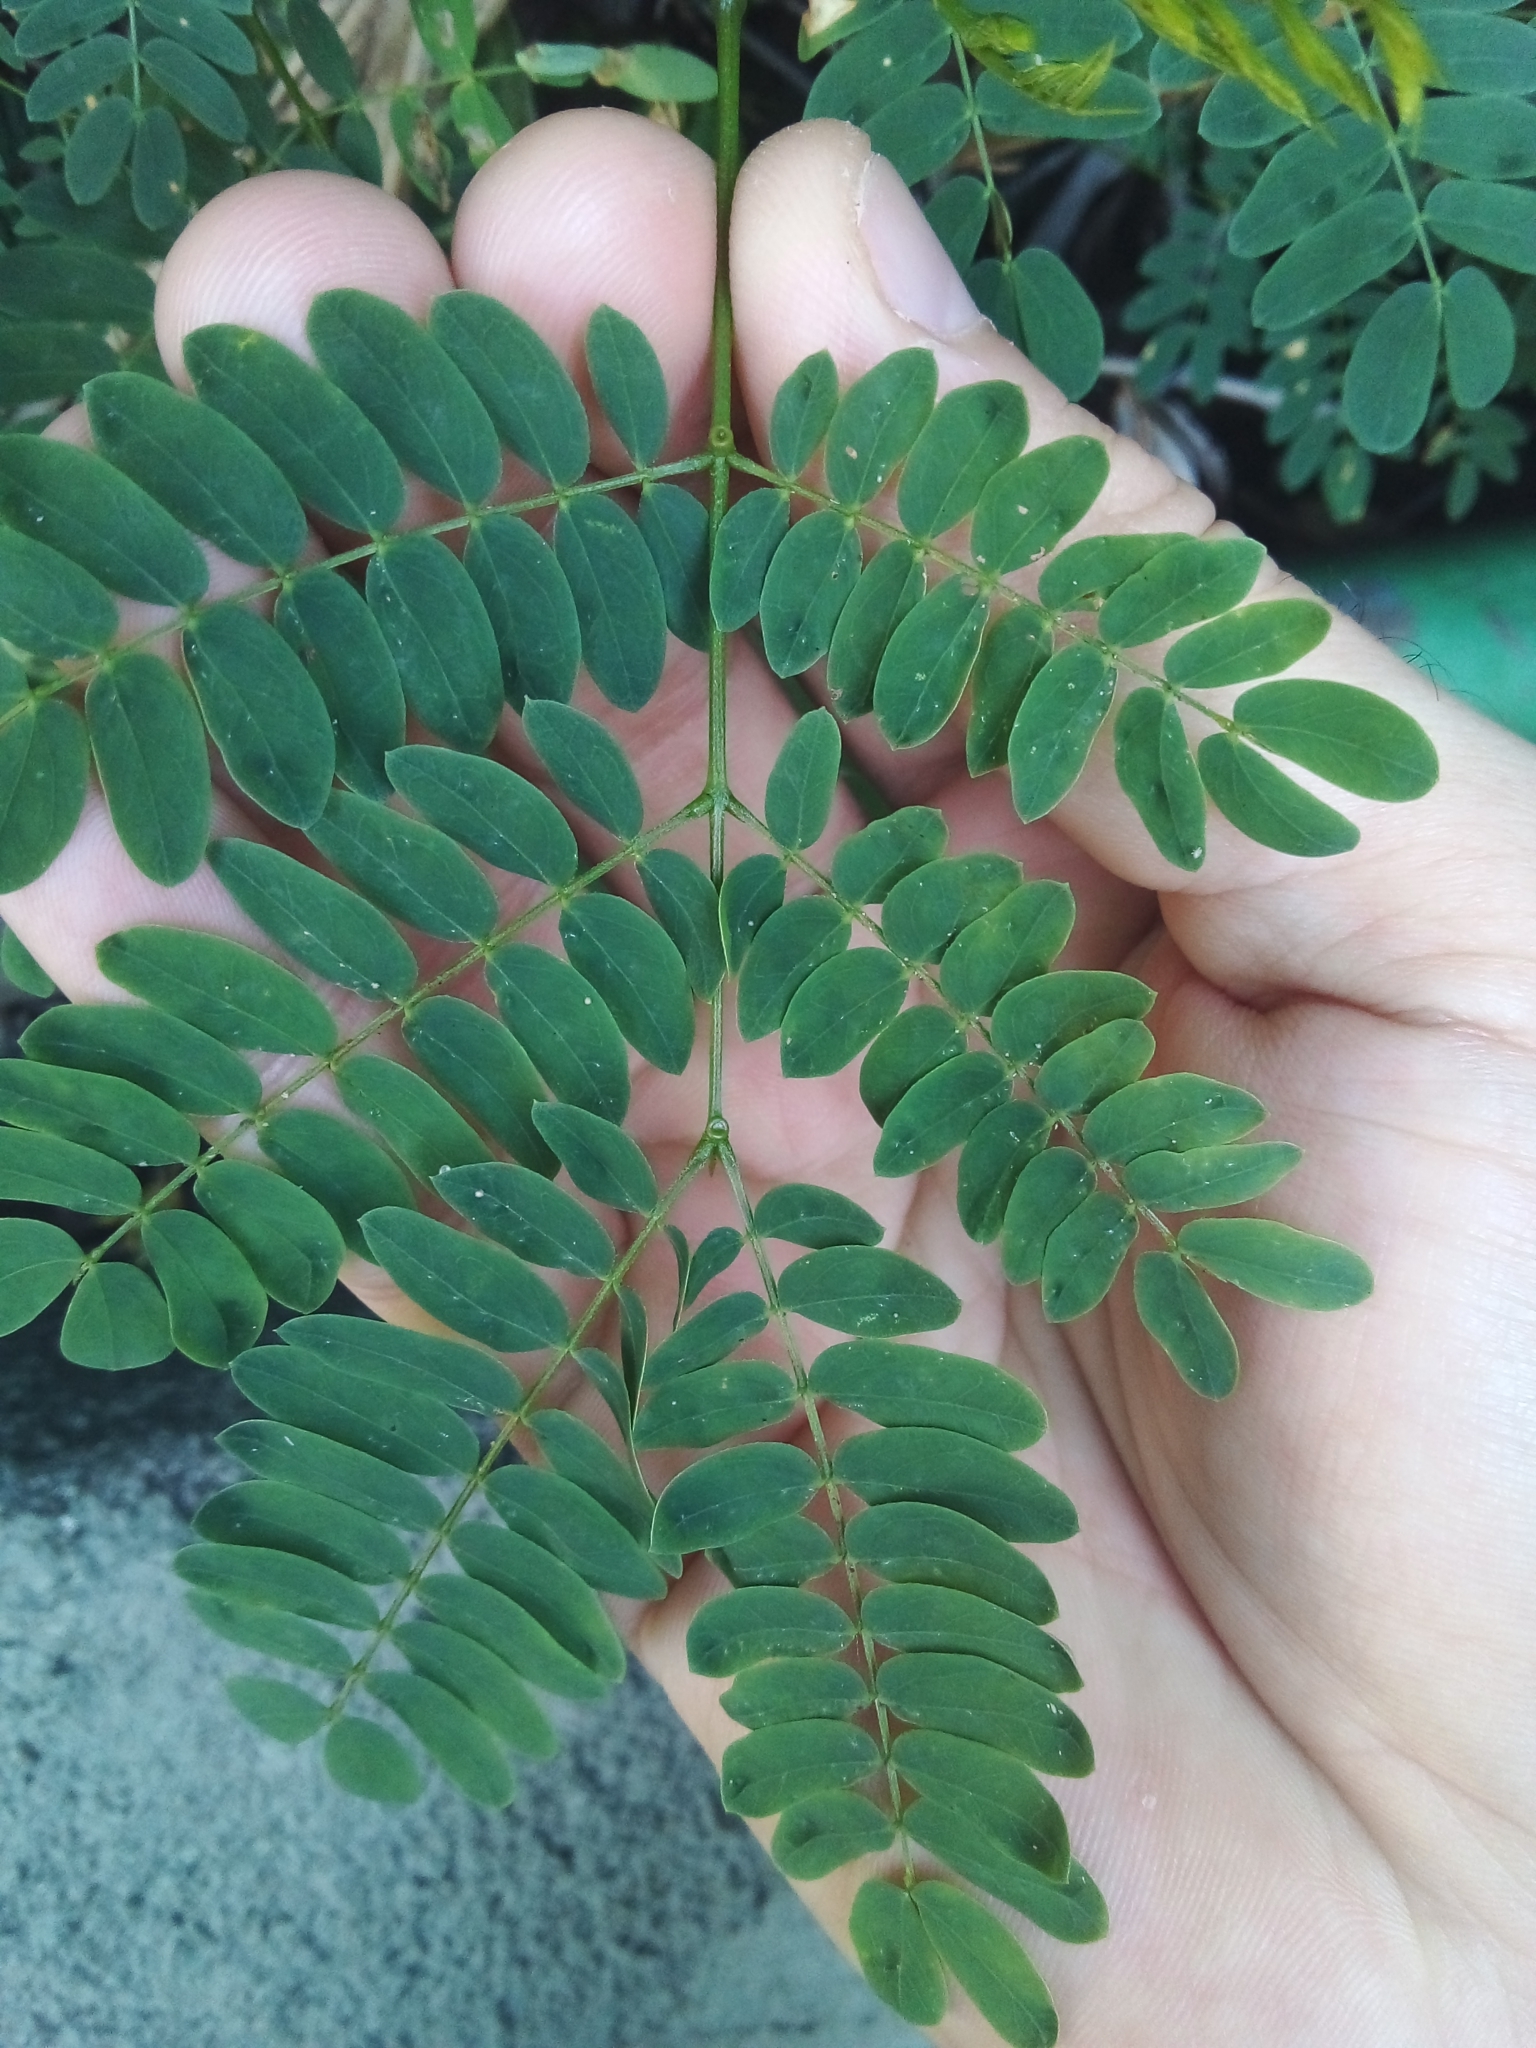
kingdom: Plantae
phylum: Tracheophyta
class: Magnoliopsida
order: Fabales
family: Fabaceae
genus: Leucaena
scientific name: Leucaena leucocephala
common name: White leadtree
